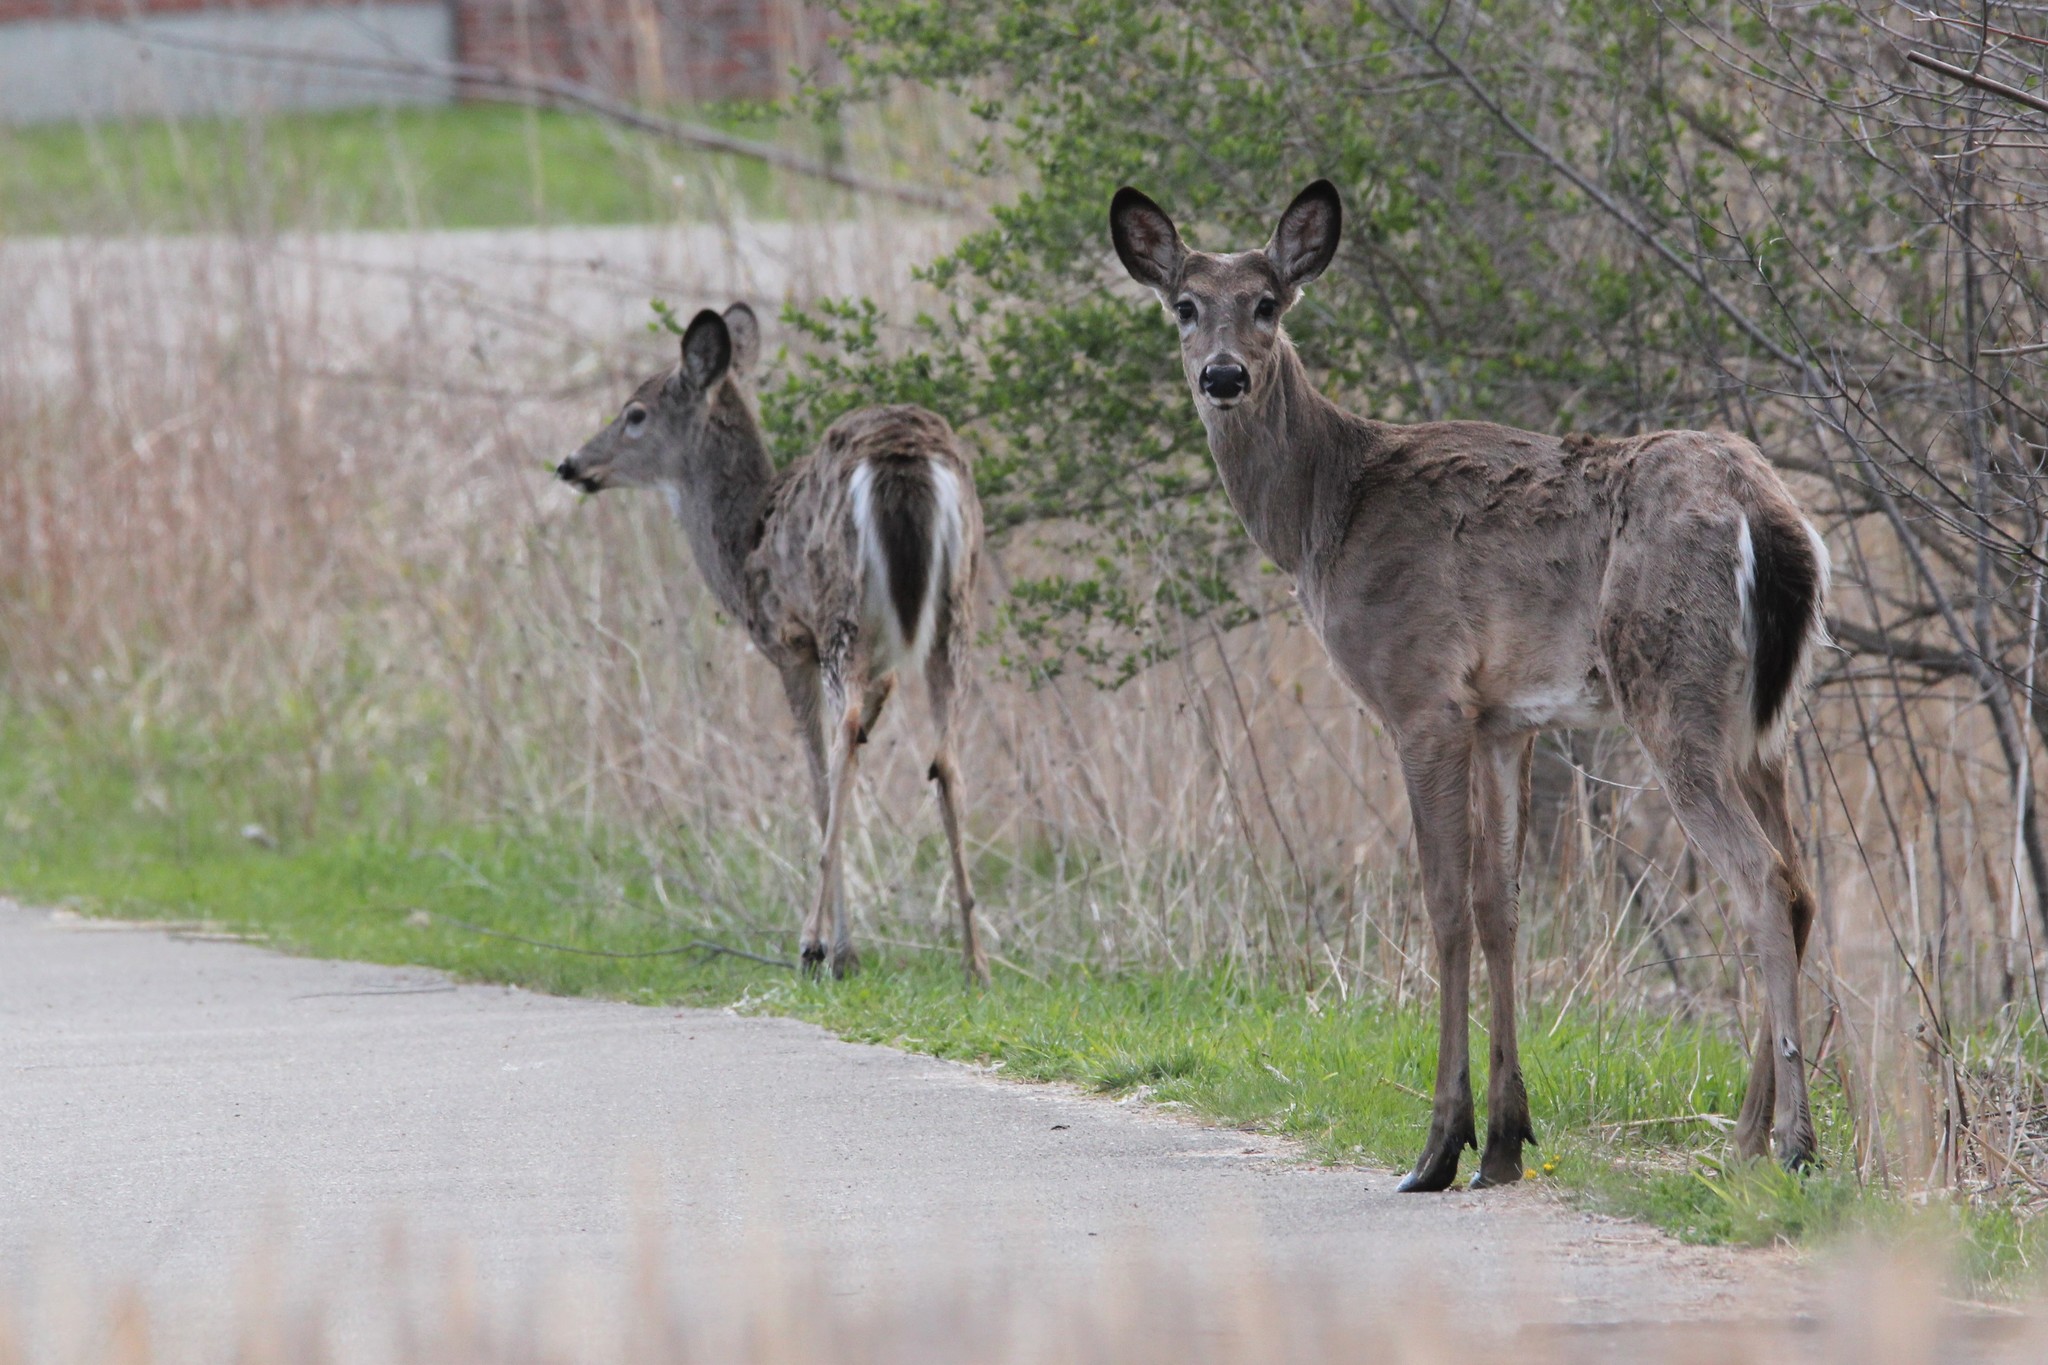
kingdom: Animalia
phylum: Chordata
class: Mammalia
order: Artiodactyla
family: Cervidae
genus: Odocoileus
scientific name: Odocoileus virginianus
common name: White-tailed deer
